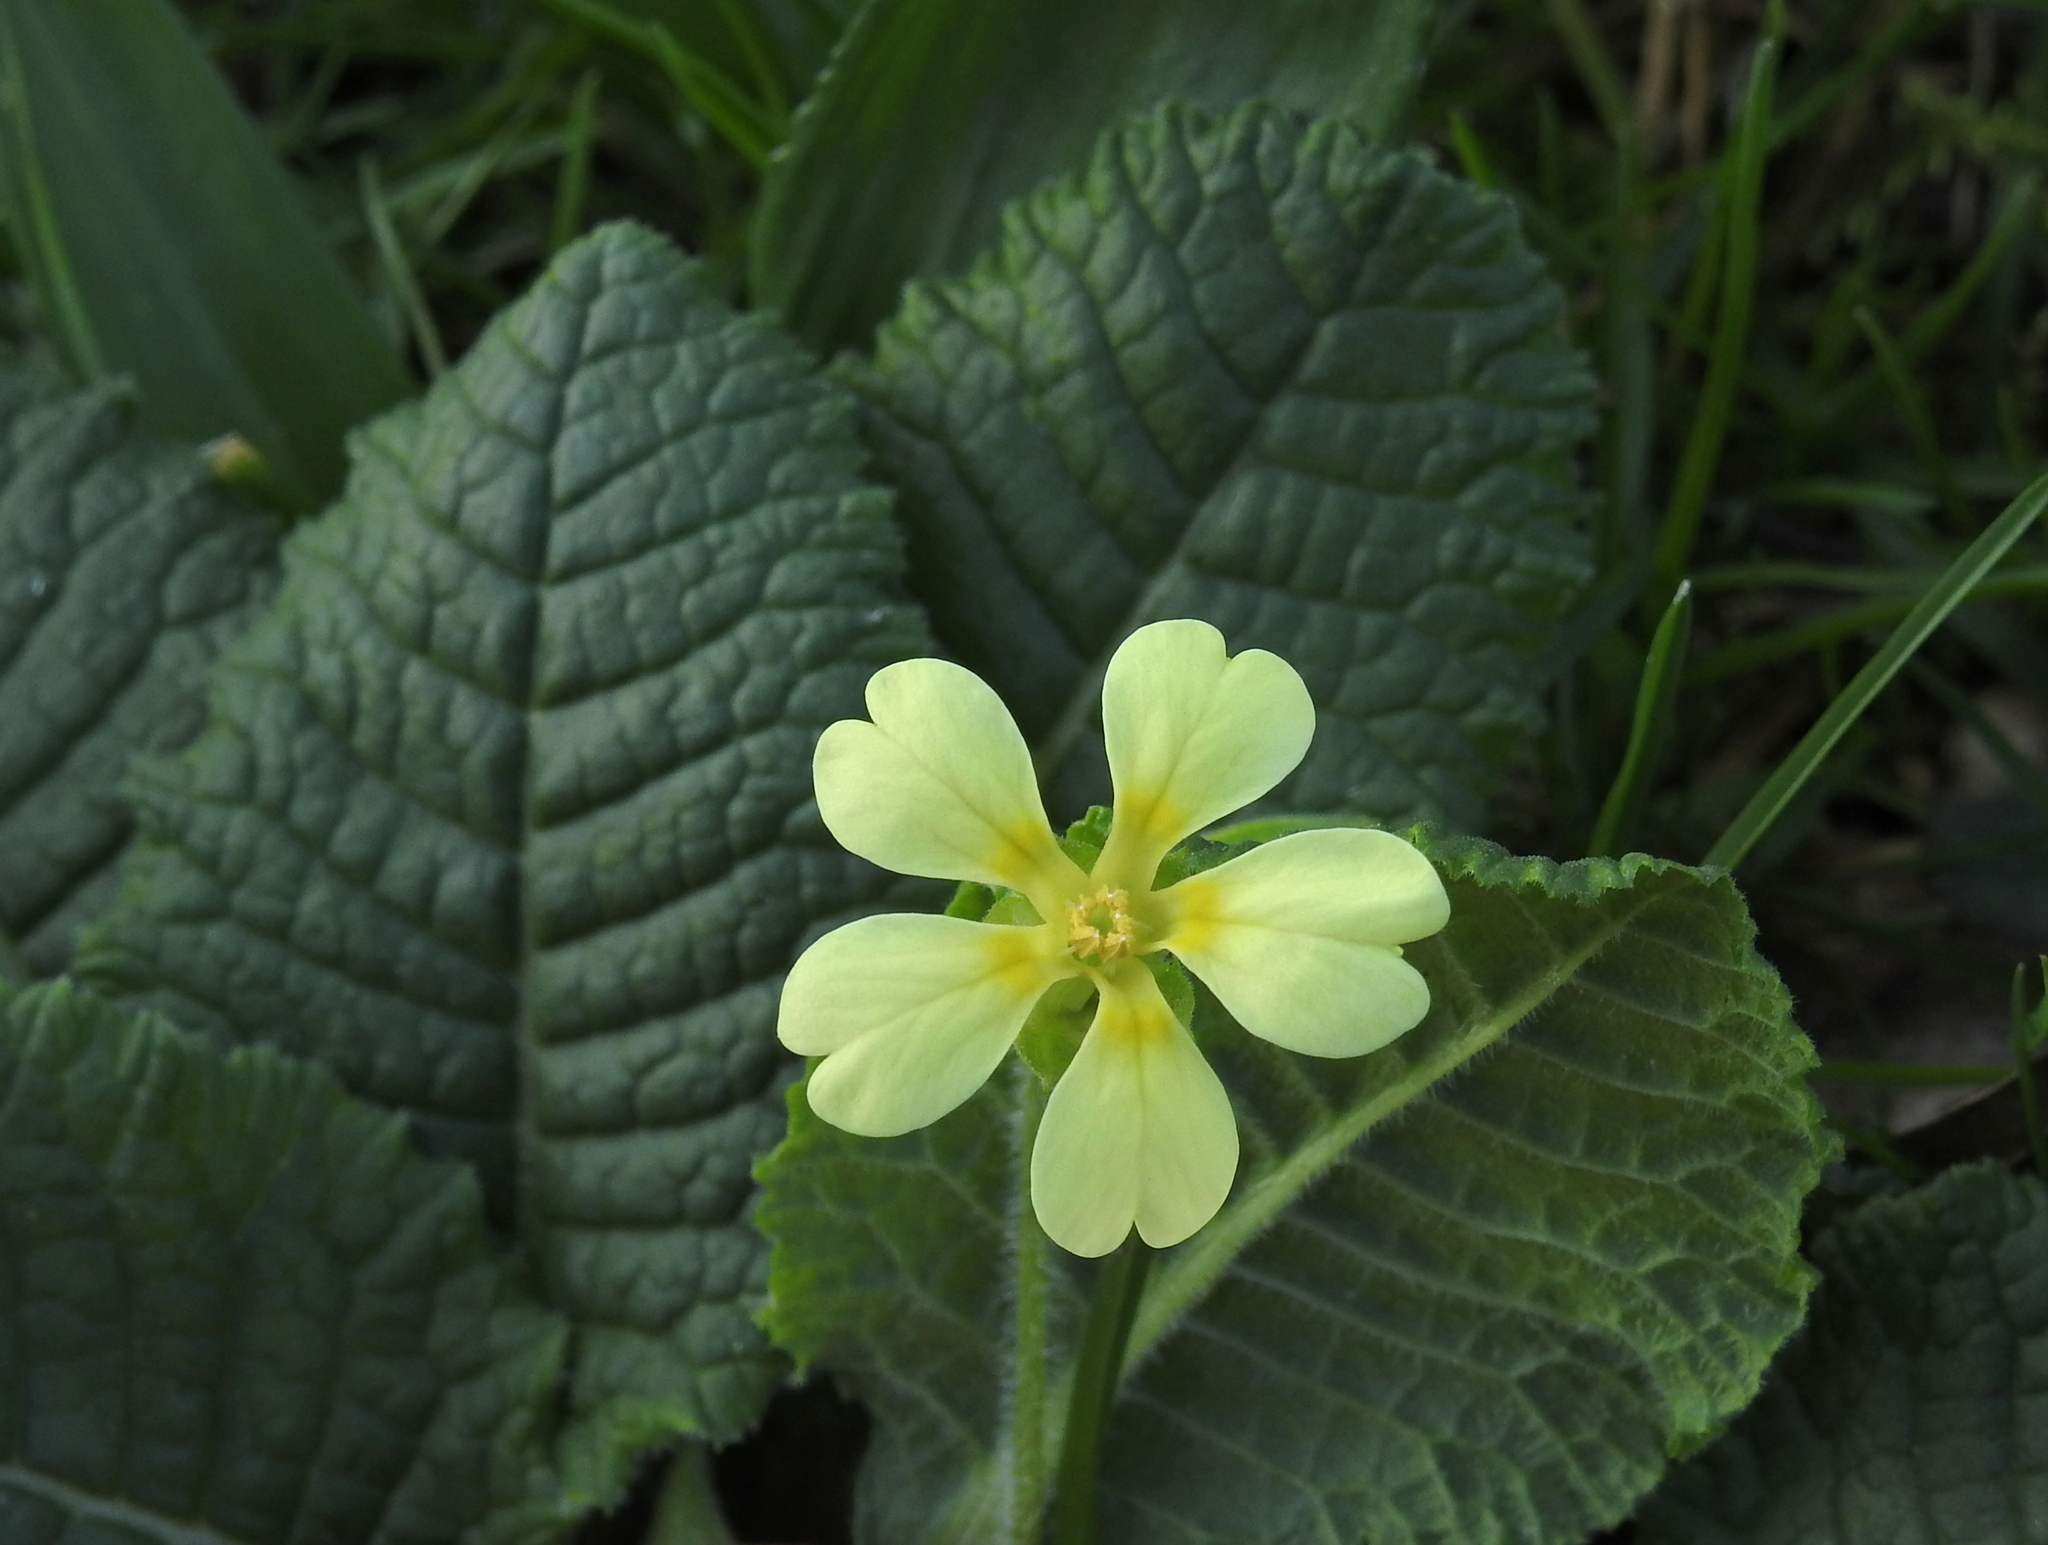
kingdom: Plantae
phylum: Tracheophyta
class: Magnoliopsida
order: Ericales
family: Primulaceae
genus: Primula
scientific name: Primula vulgaris
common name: Primrose
